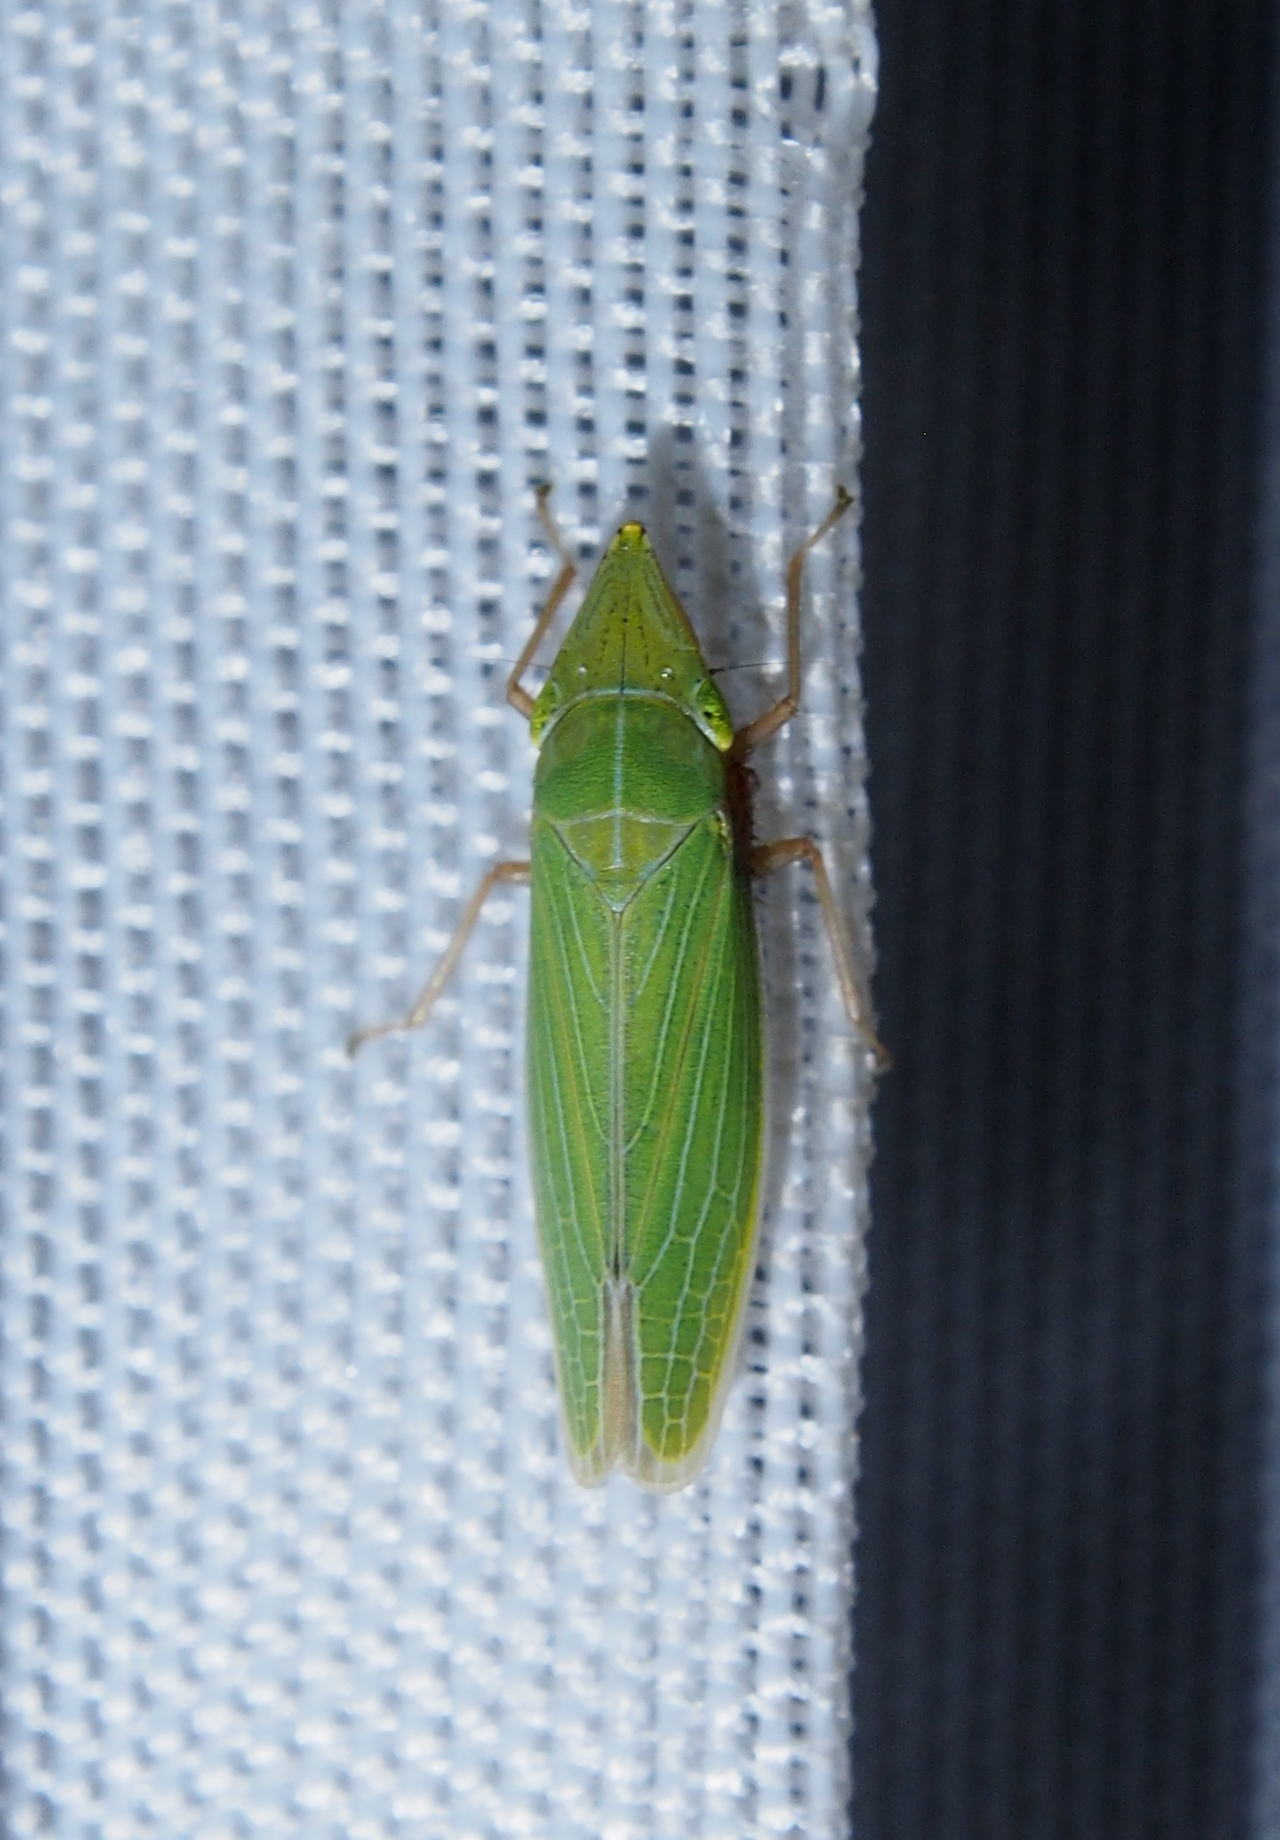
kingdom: Animalia
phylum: Arthropoda
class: Insecta
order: Hemiptera
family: Cicadellidae
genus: Draeculacephala
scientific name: Draeculacephala antica
